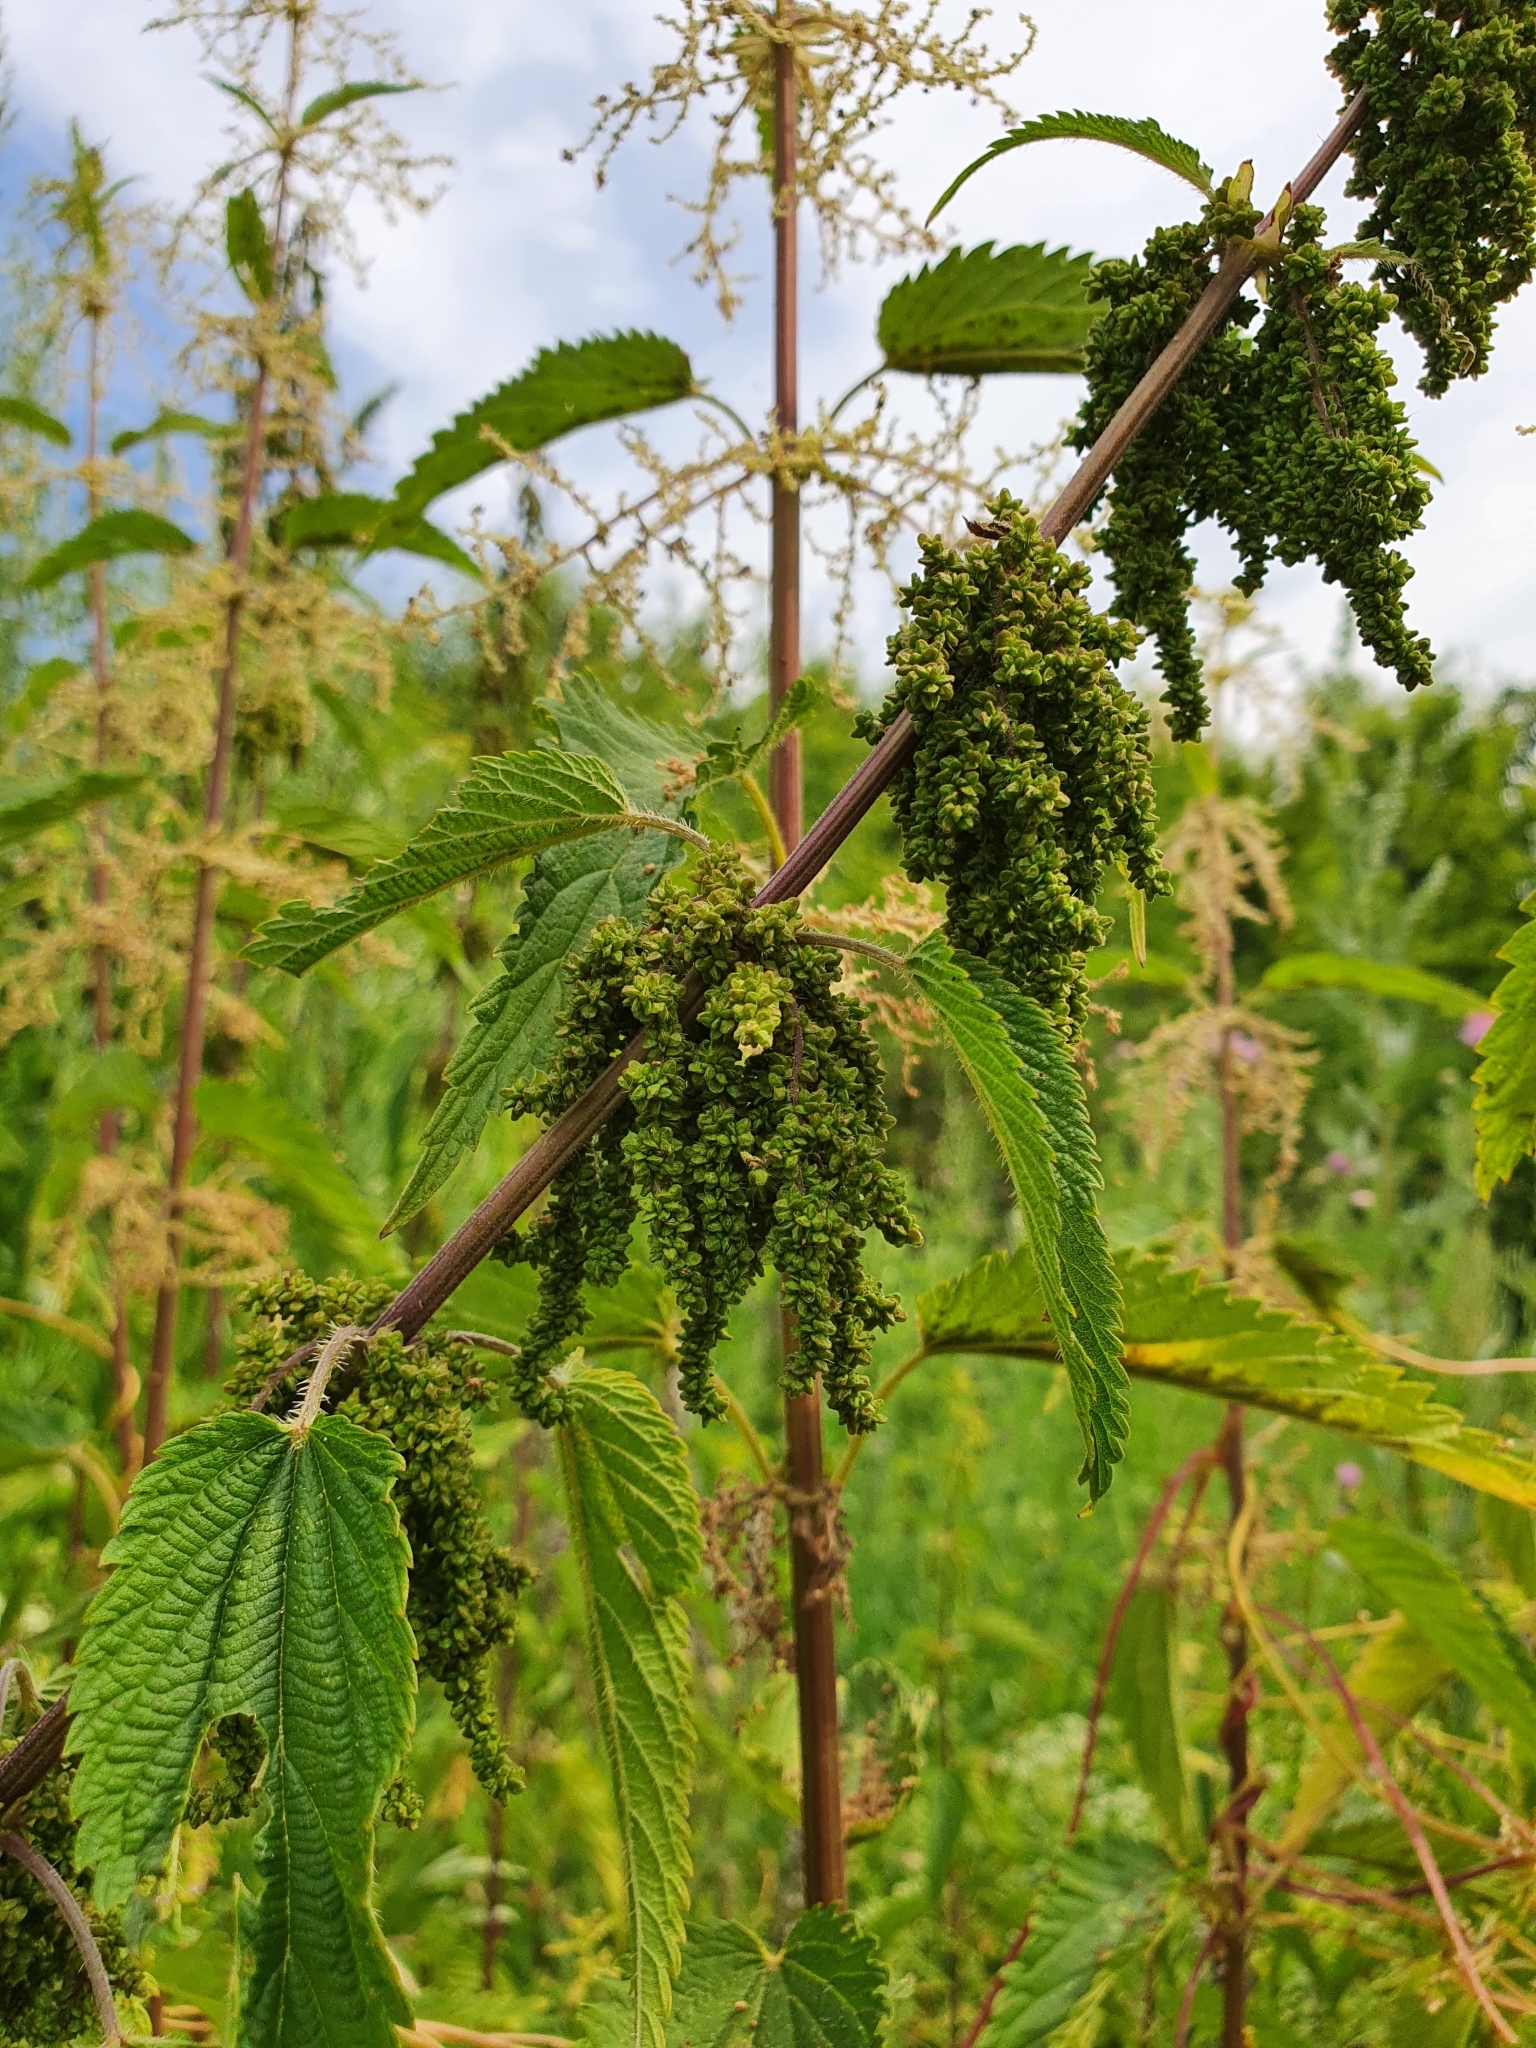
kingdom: Plantae
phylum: Tracheophyta
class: Magnoliopsida
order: Rosales
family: Urticaceae
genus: Urtica
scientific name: Urtica dioica
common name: Common nettle
